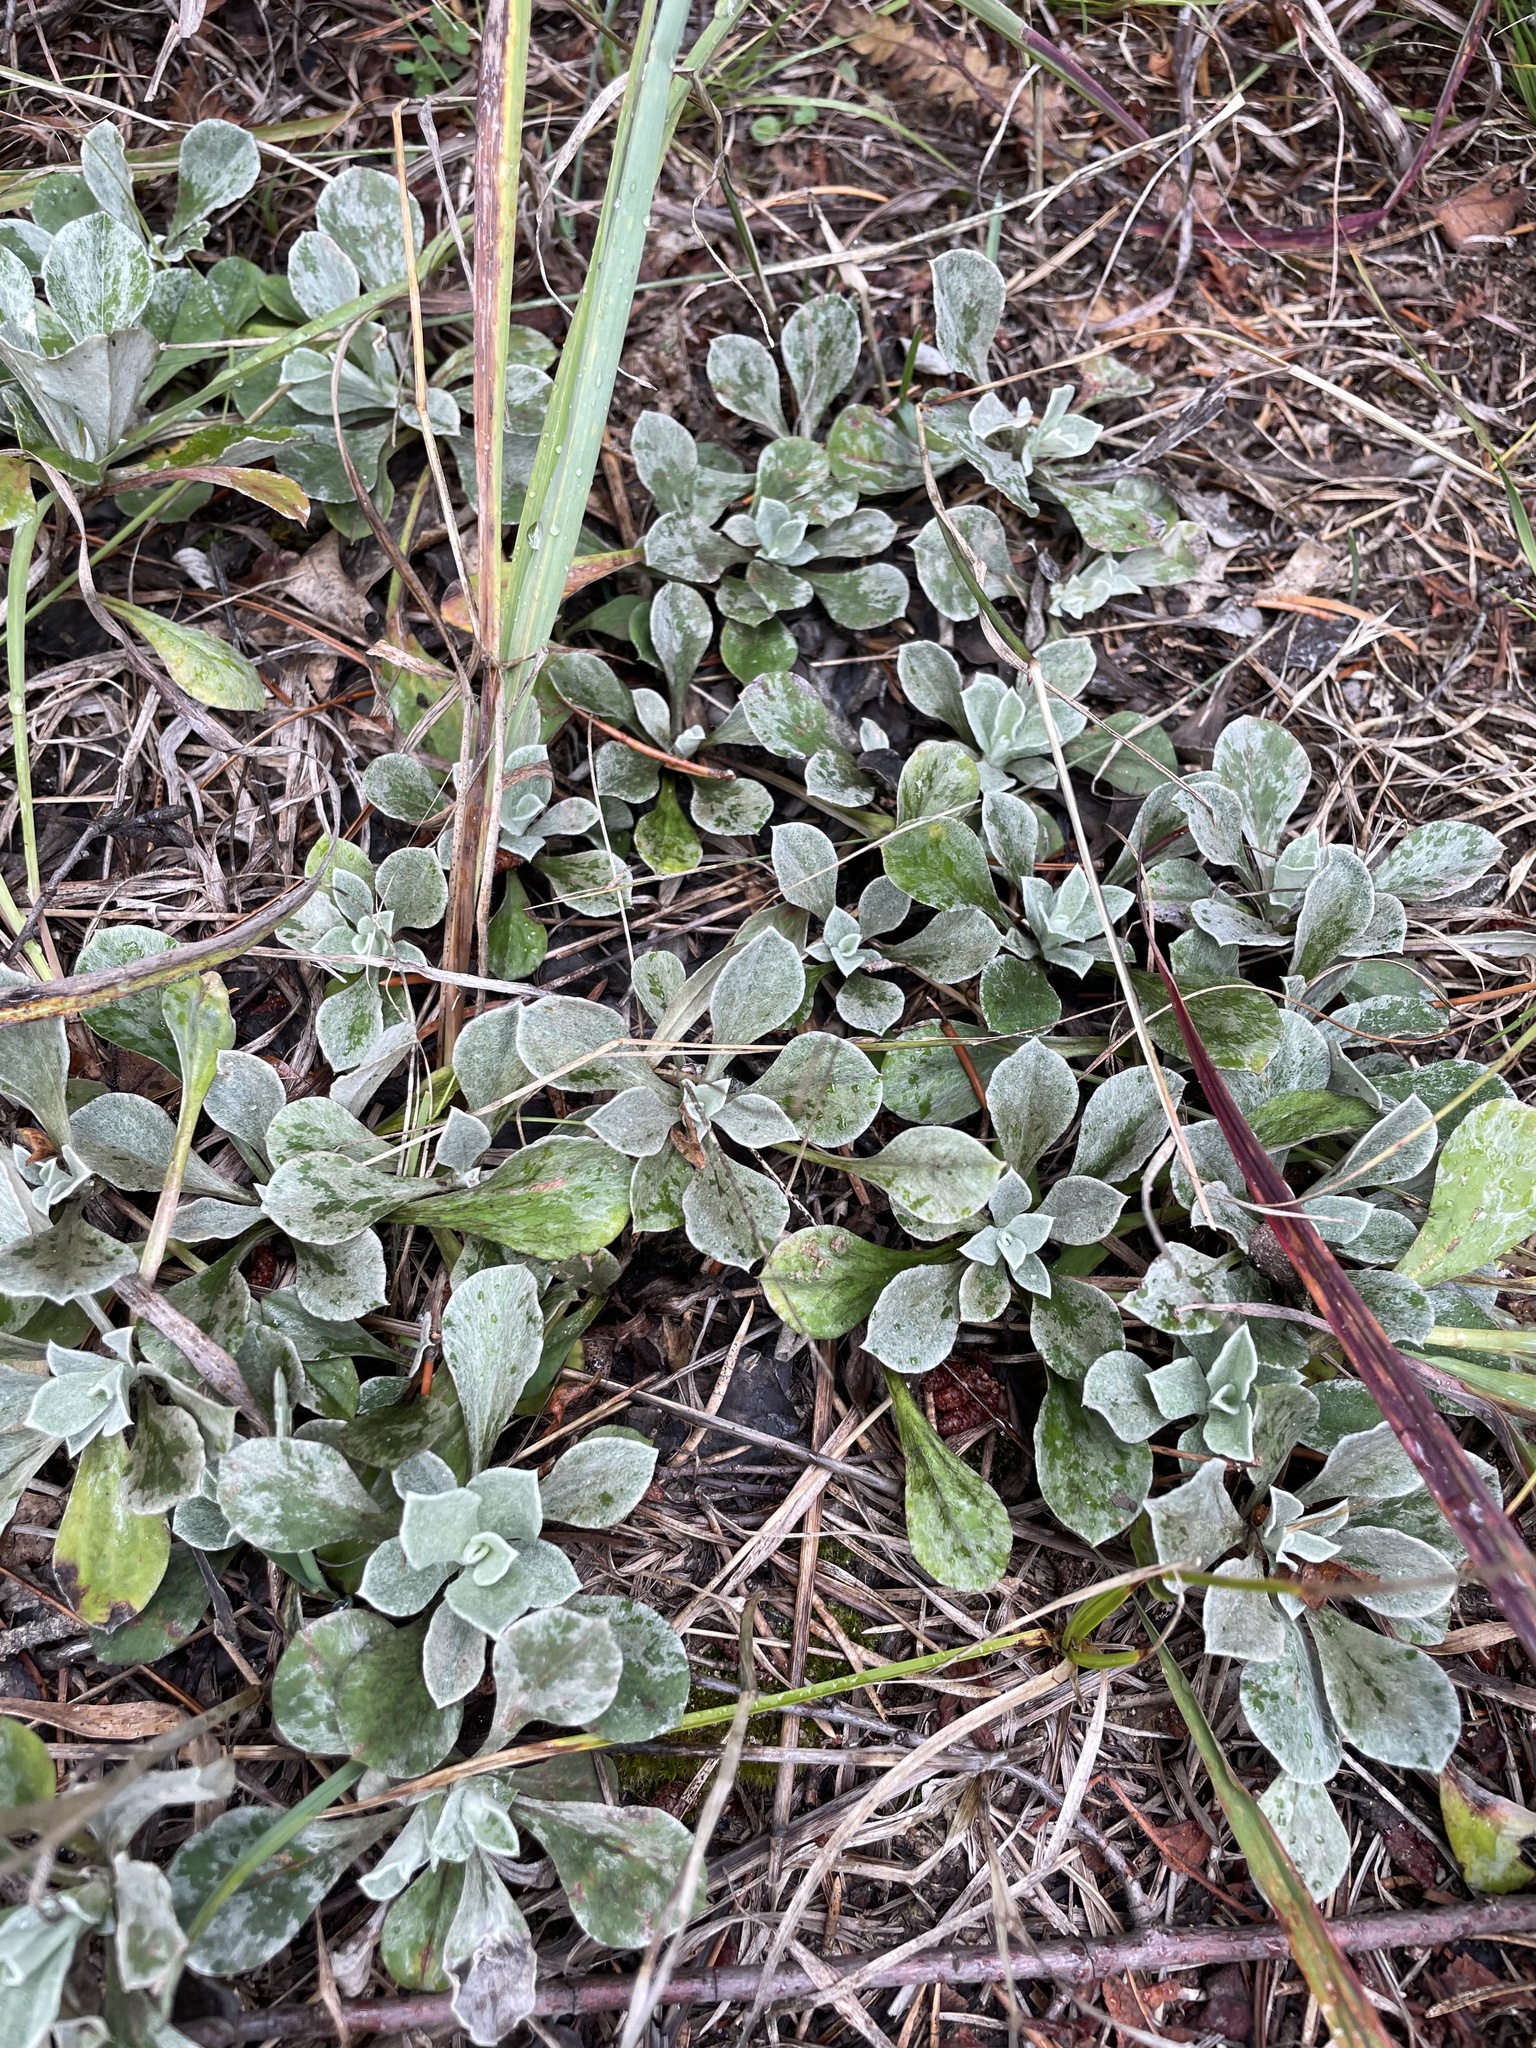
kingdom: Plantae
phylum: Tracheophyta
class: Magnoliopsida
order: Asterales
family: Asteraceae
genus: Antennaria
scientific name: Antennaria howellii
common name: Howell's pussytoes
